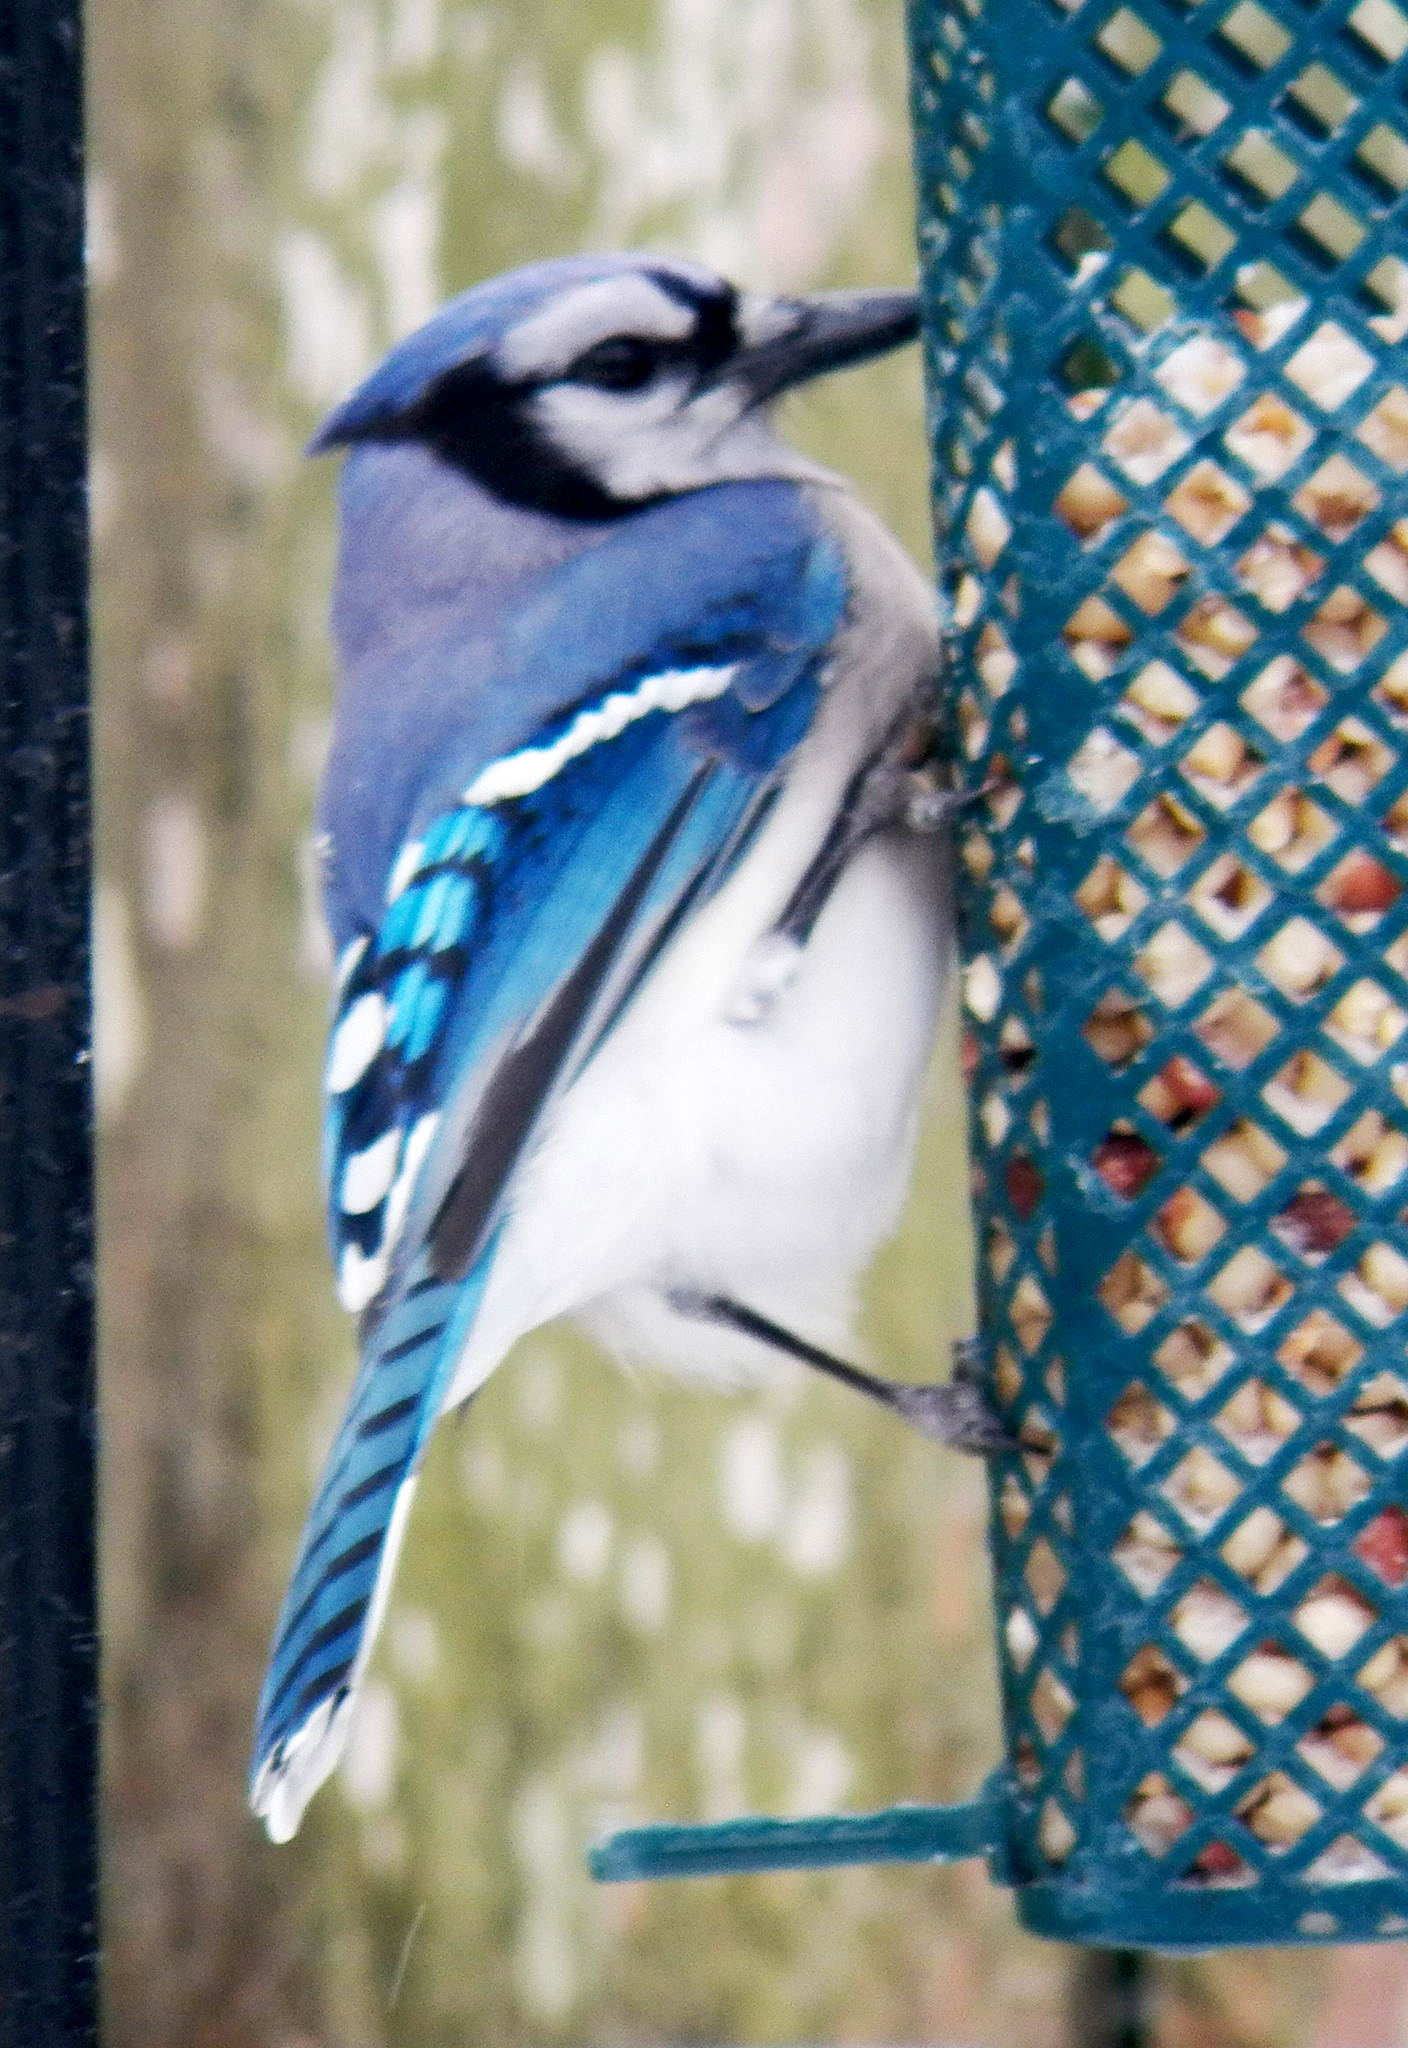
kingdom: Animalia
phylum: Chordata
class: Aves
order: Passeriformes
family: Corvidae
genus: Cyanocitta
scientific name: Cyanocitta cristata
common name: Blue jay
